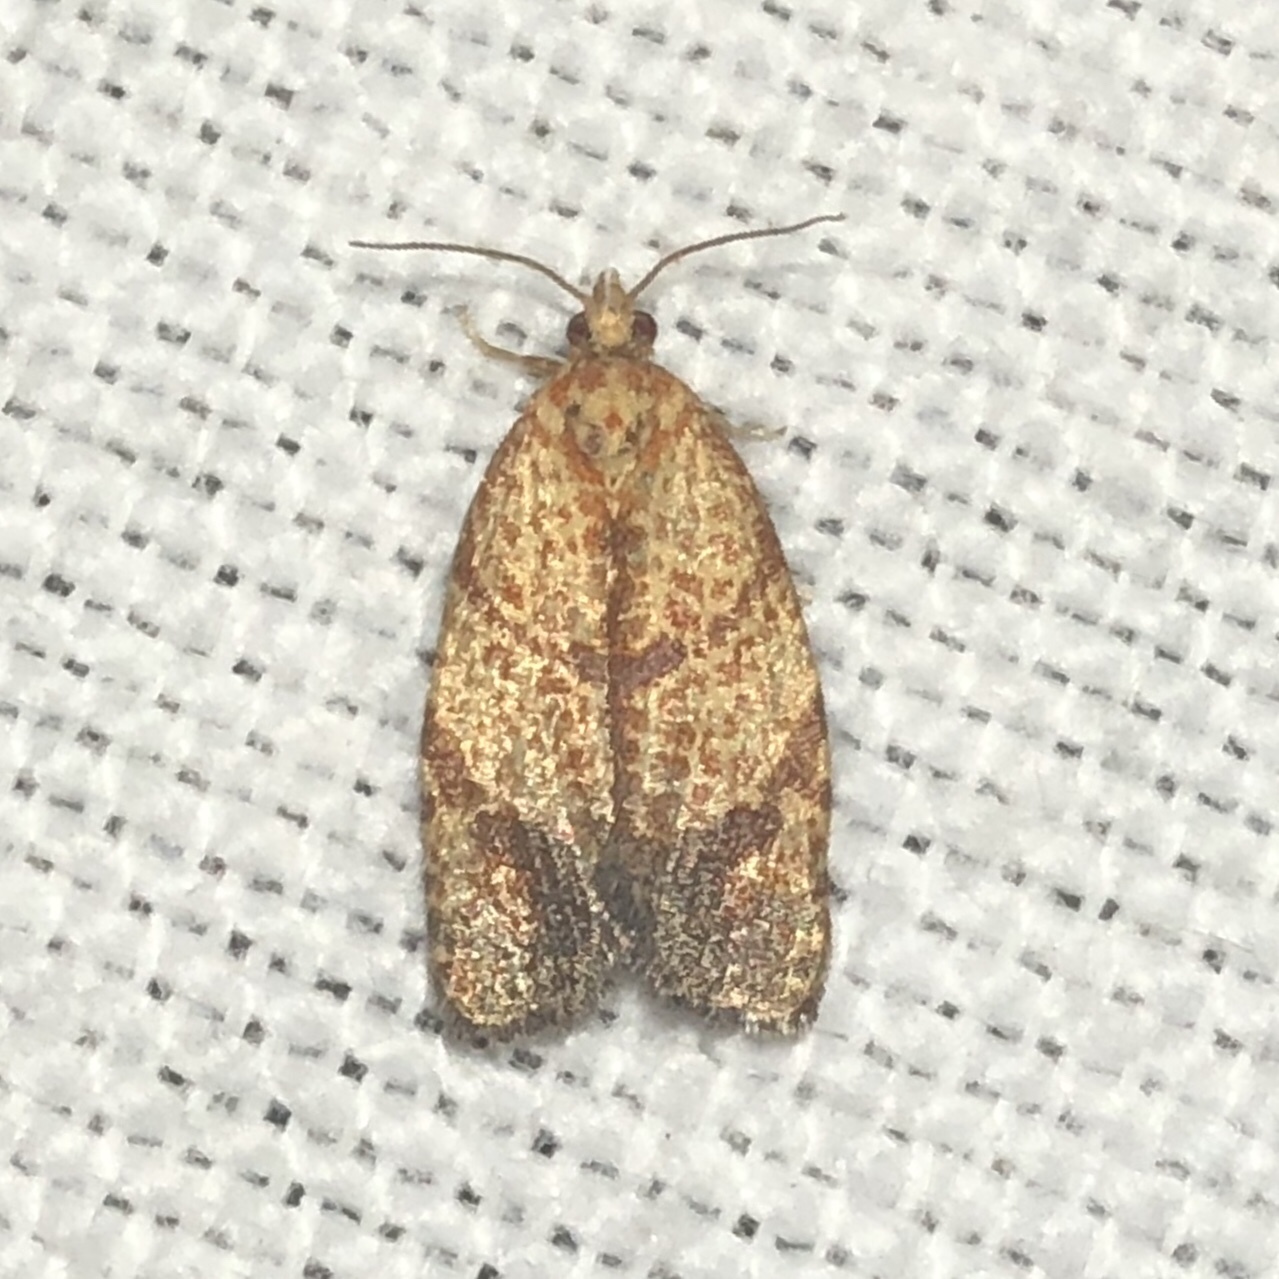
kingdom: Animalia
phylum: Arthropoda
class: Insecta
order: Lepidoptera
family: Tortricidae
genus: Argyrotaenia
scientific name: Argyrotaenia juglandana
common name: Hickory leafroller moth
